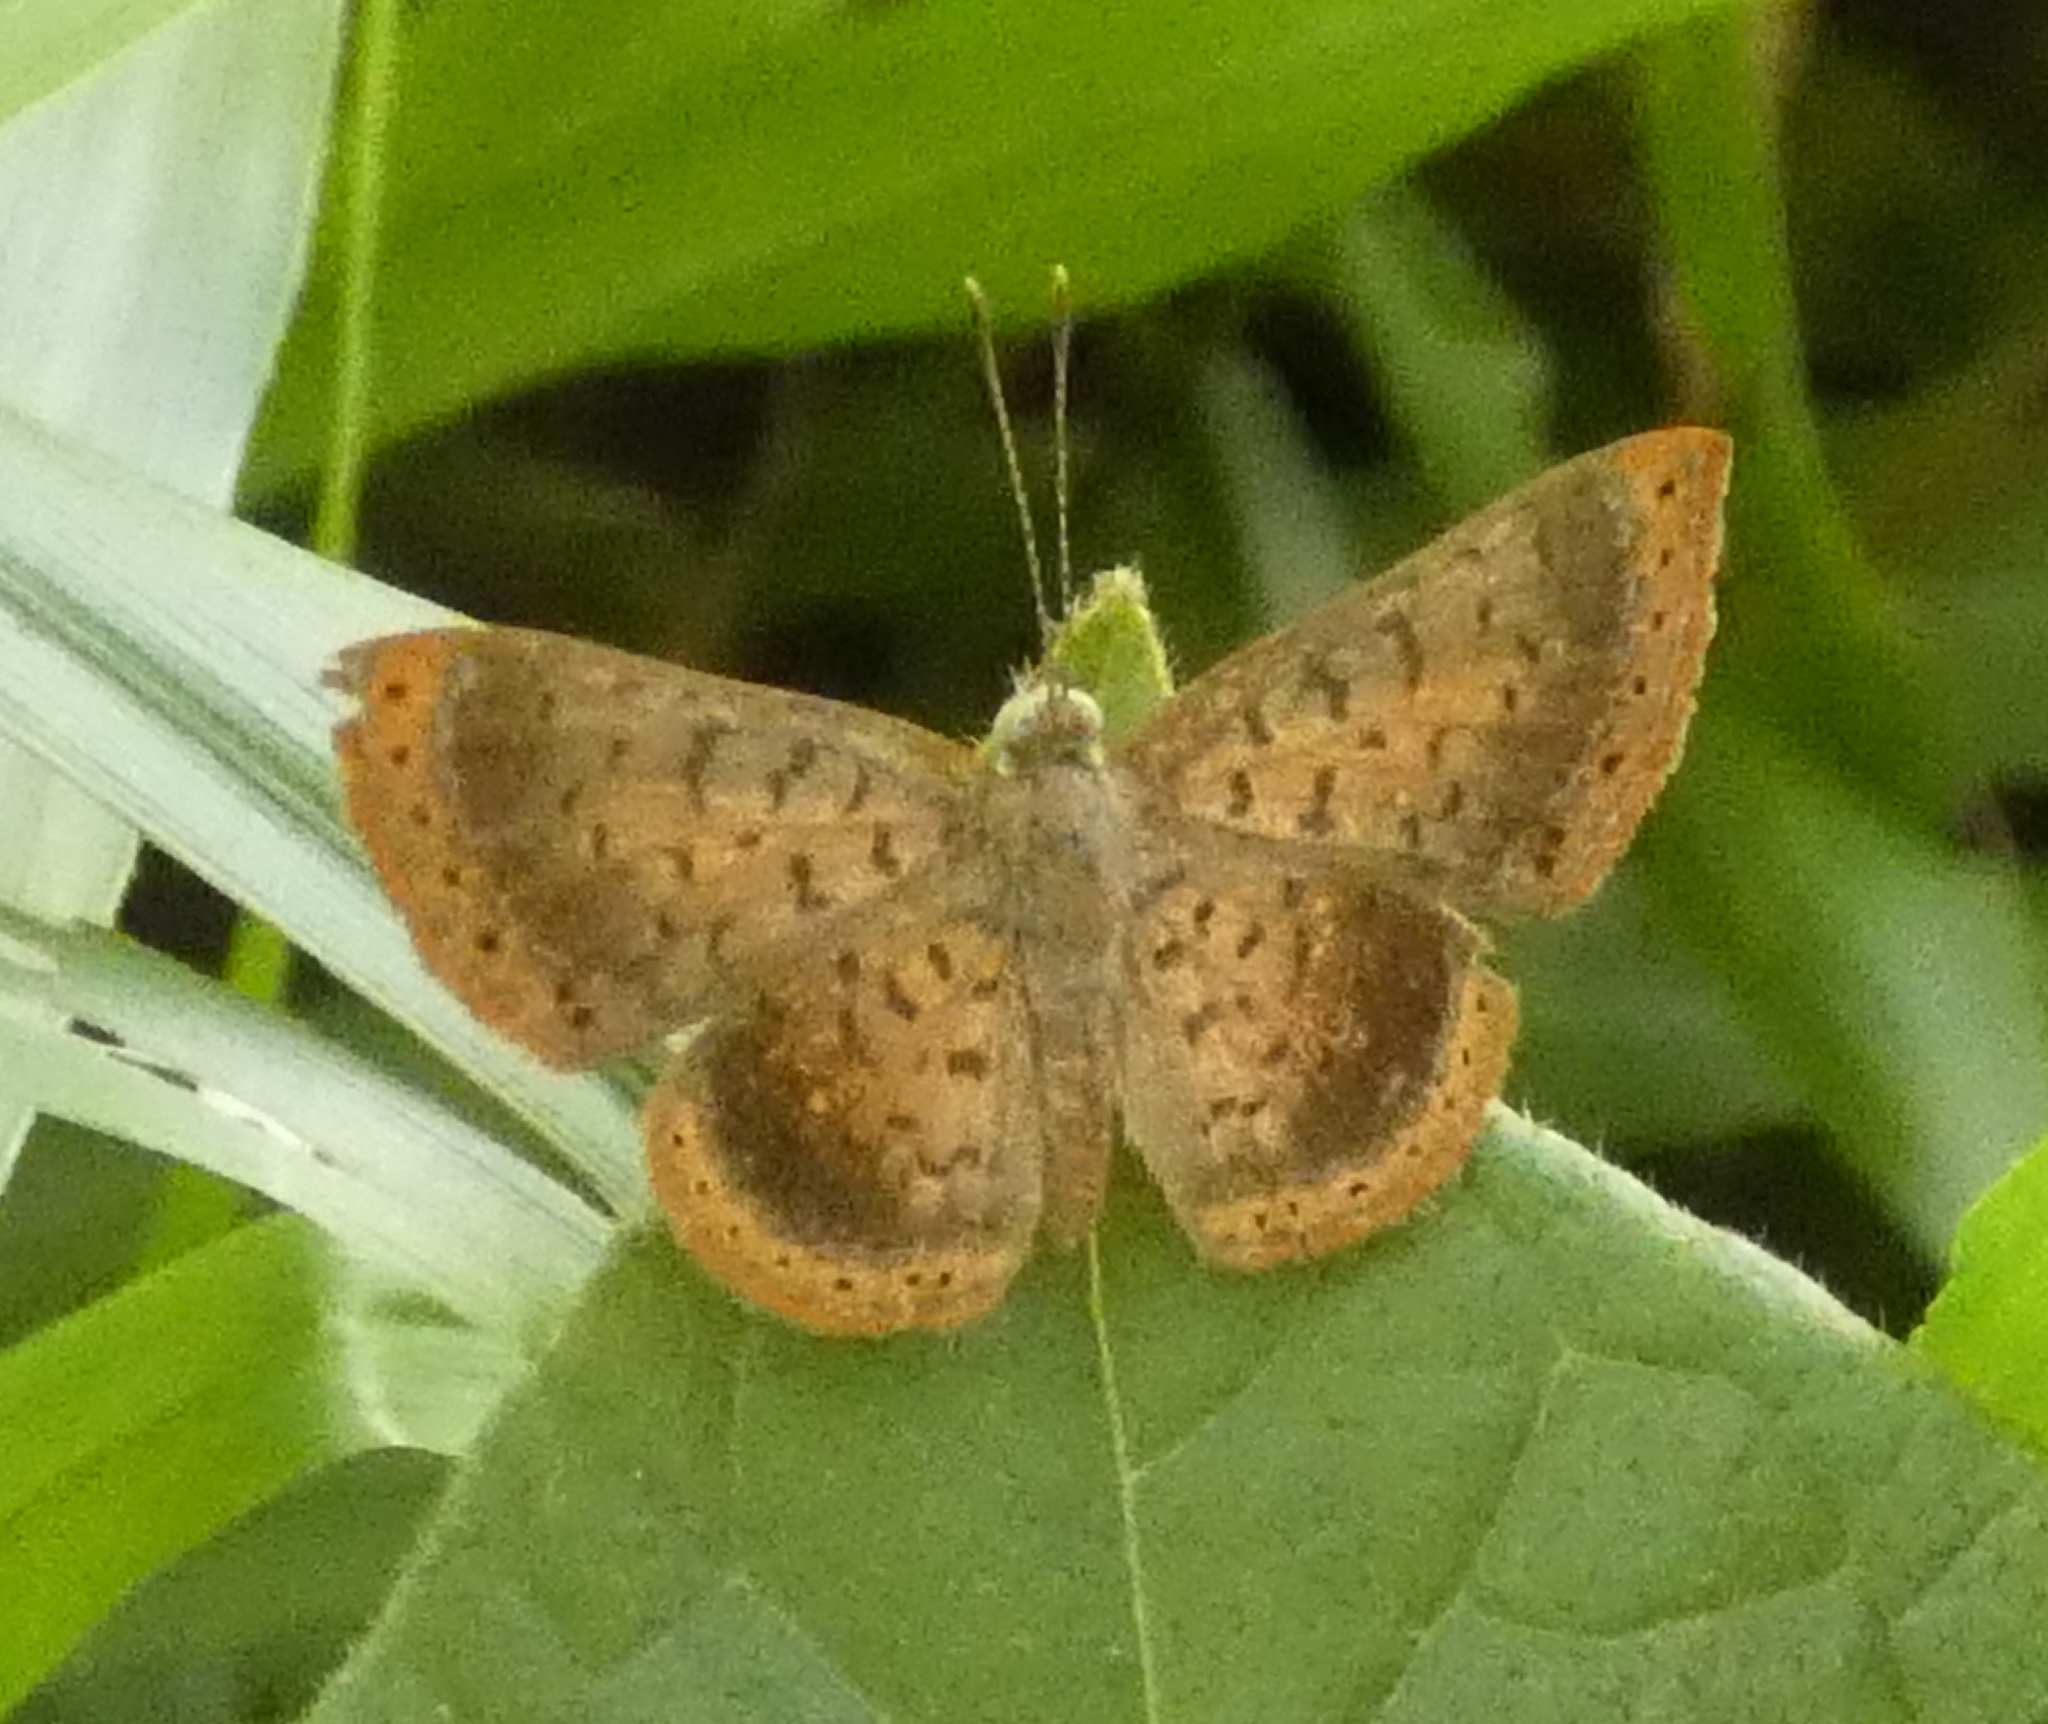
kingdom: Animalia
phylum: Arthropoda
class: Insecta
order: Lepidoptera
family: Riodinidae
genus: Dachetola
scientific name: Dachetola
